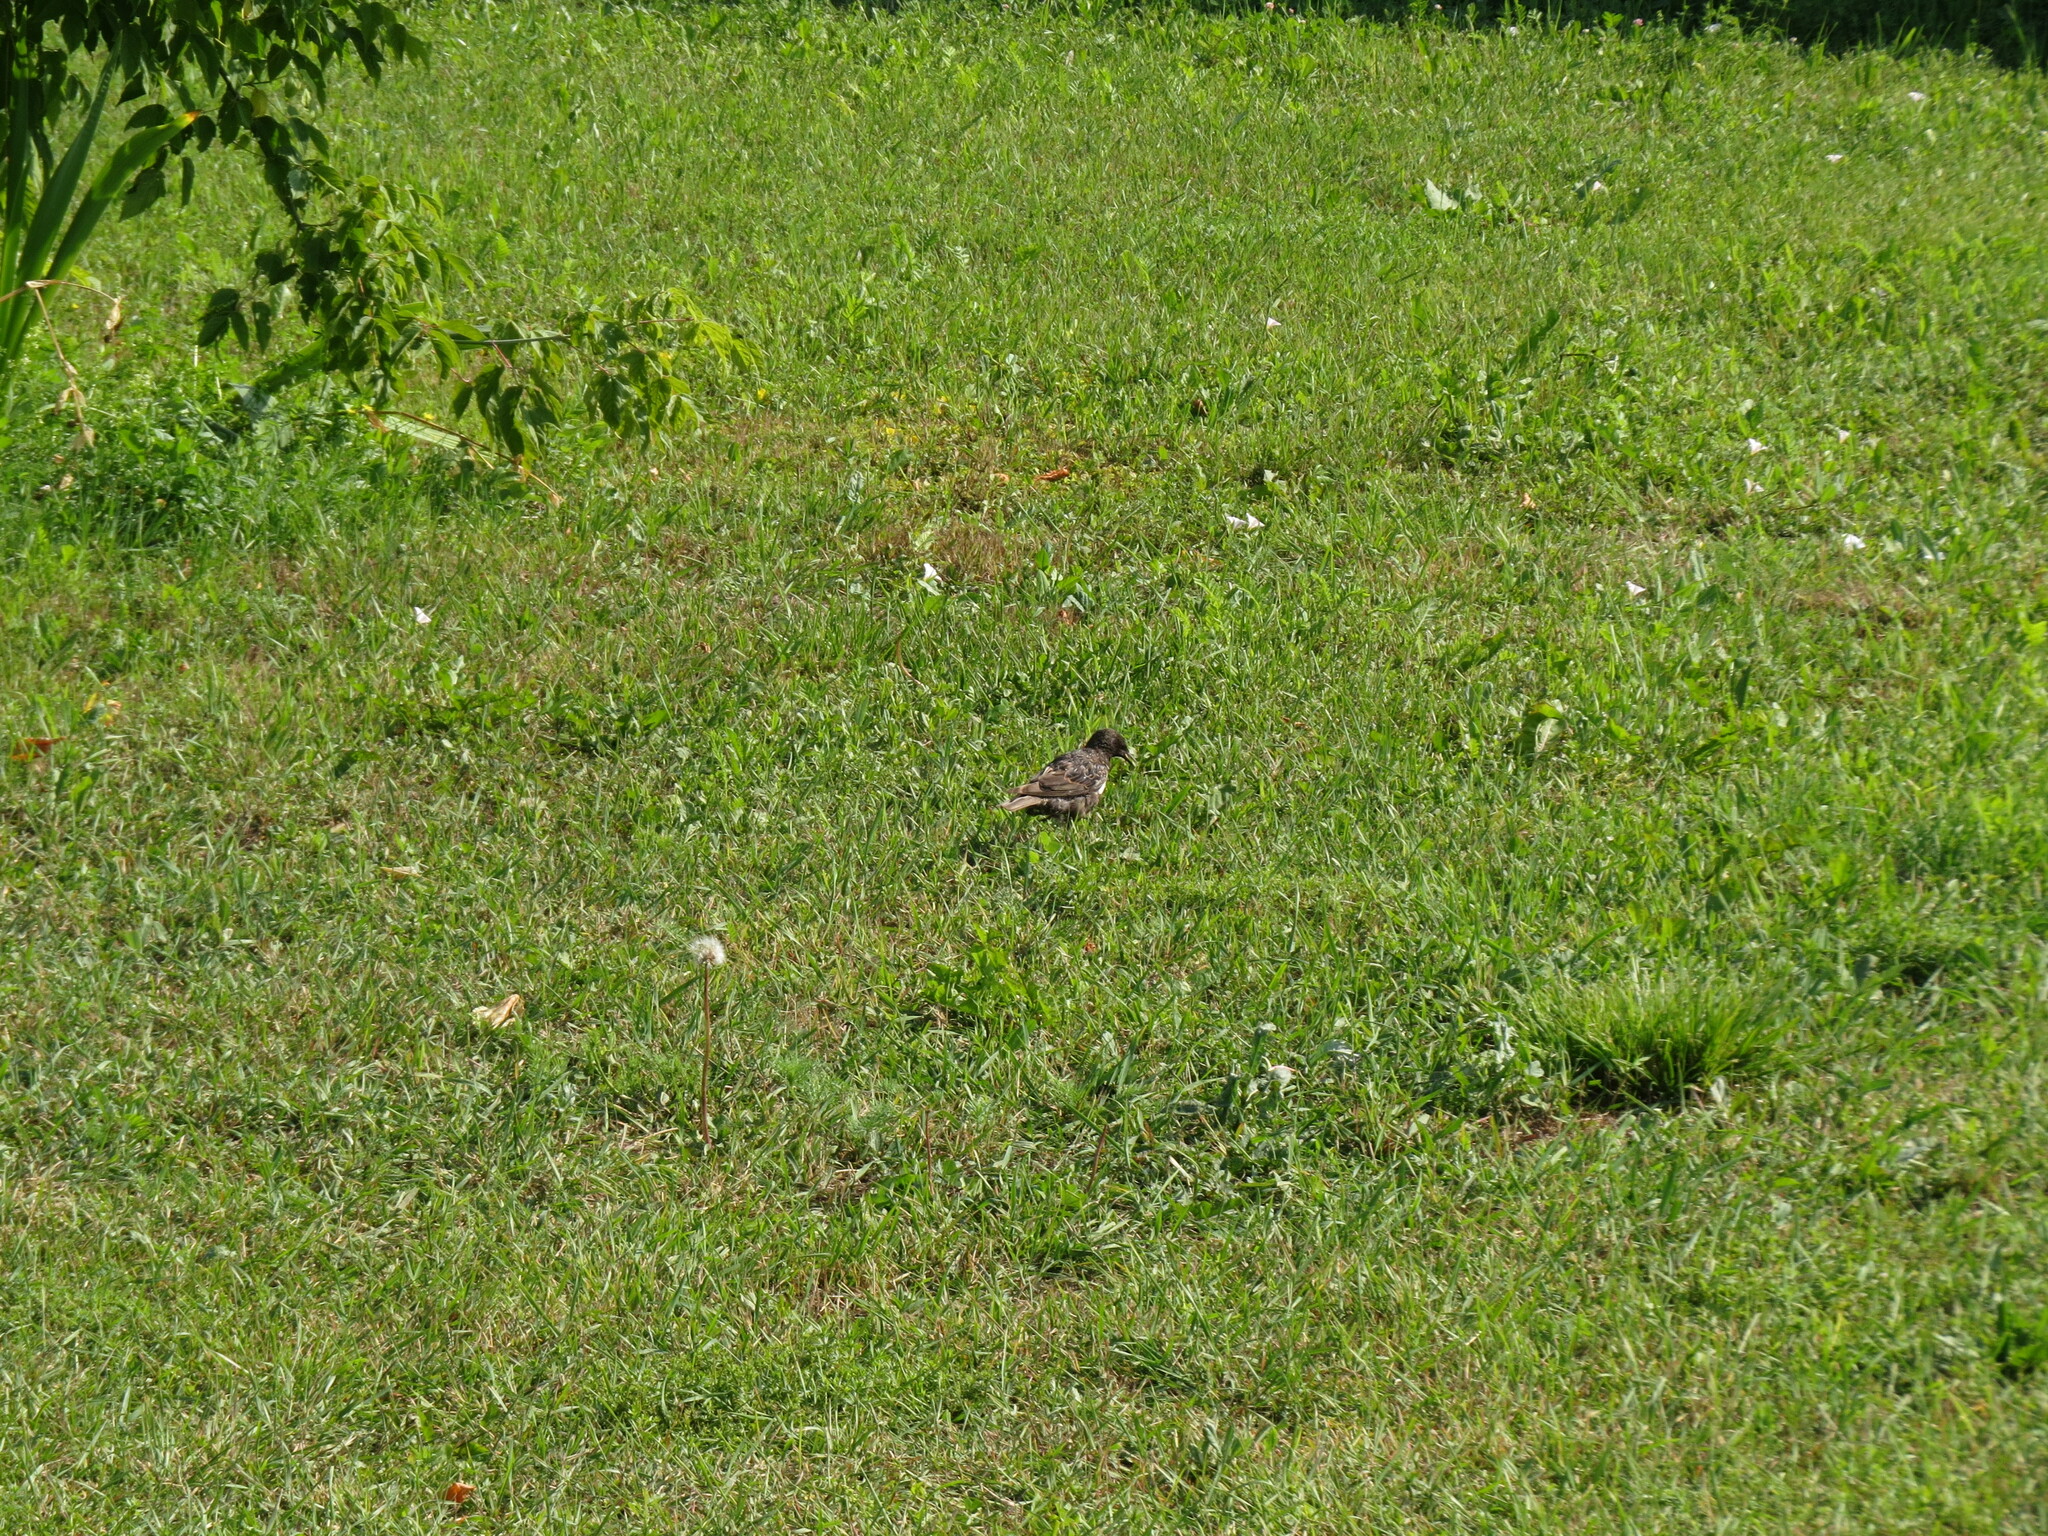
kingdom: Animalia
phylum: Chordata
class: Aves
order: Passeriformes
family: Sturnidae
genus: Sturnus
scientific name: Sturnus vulgaris
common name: Common starling
